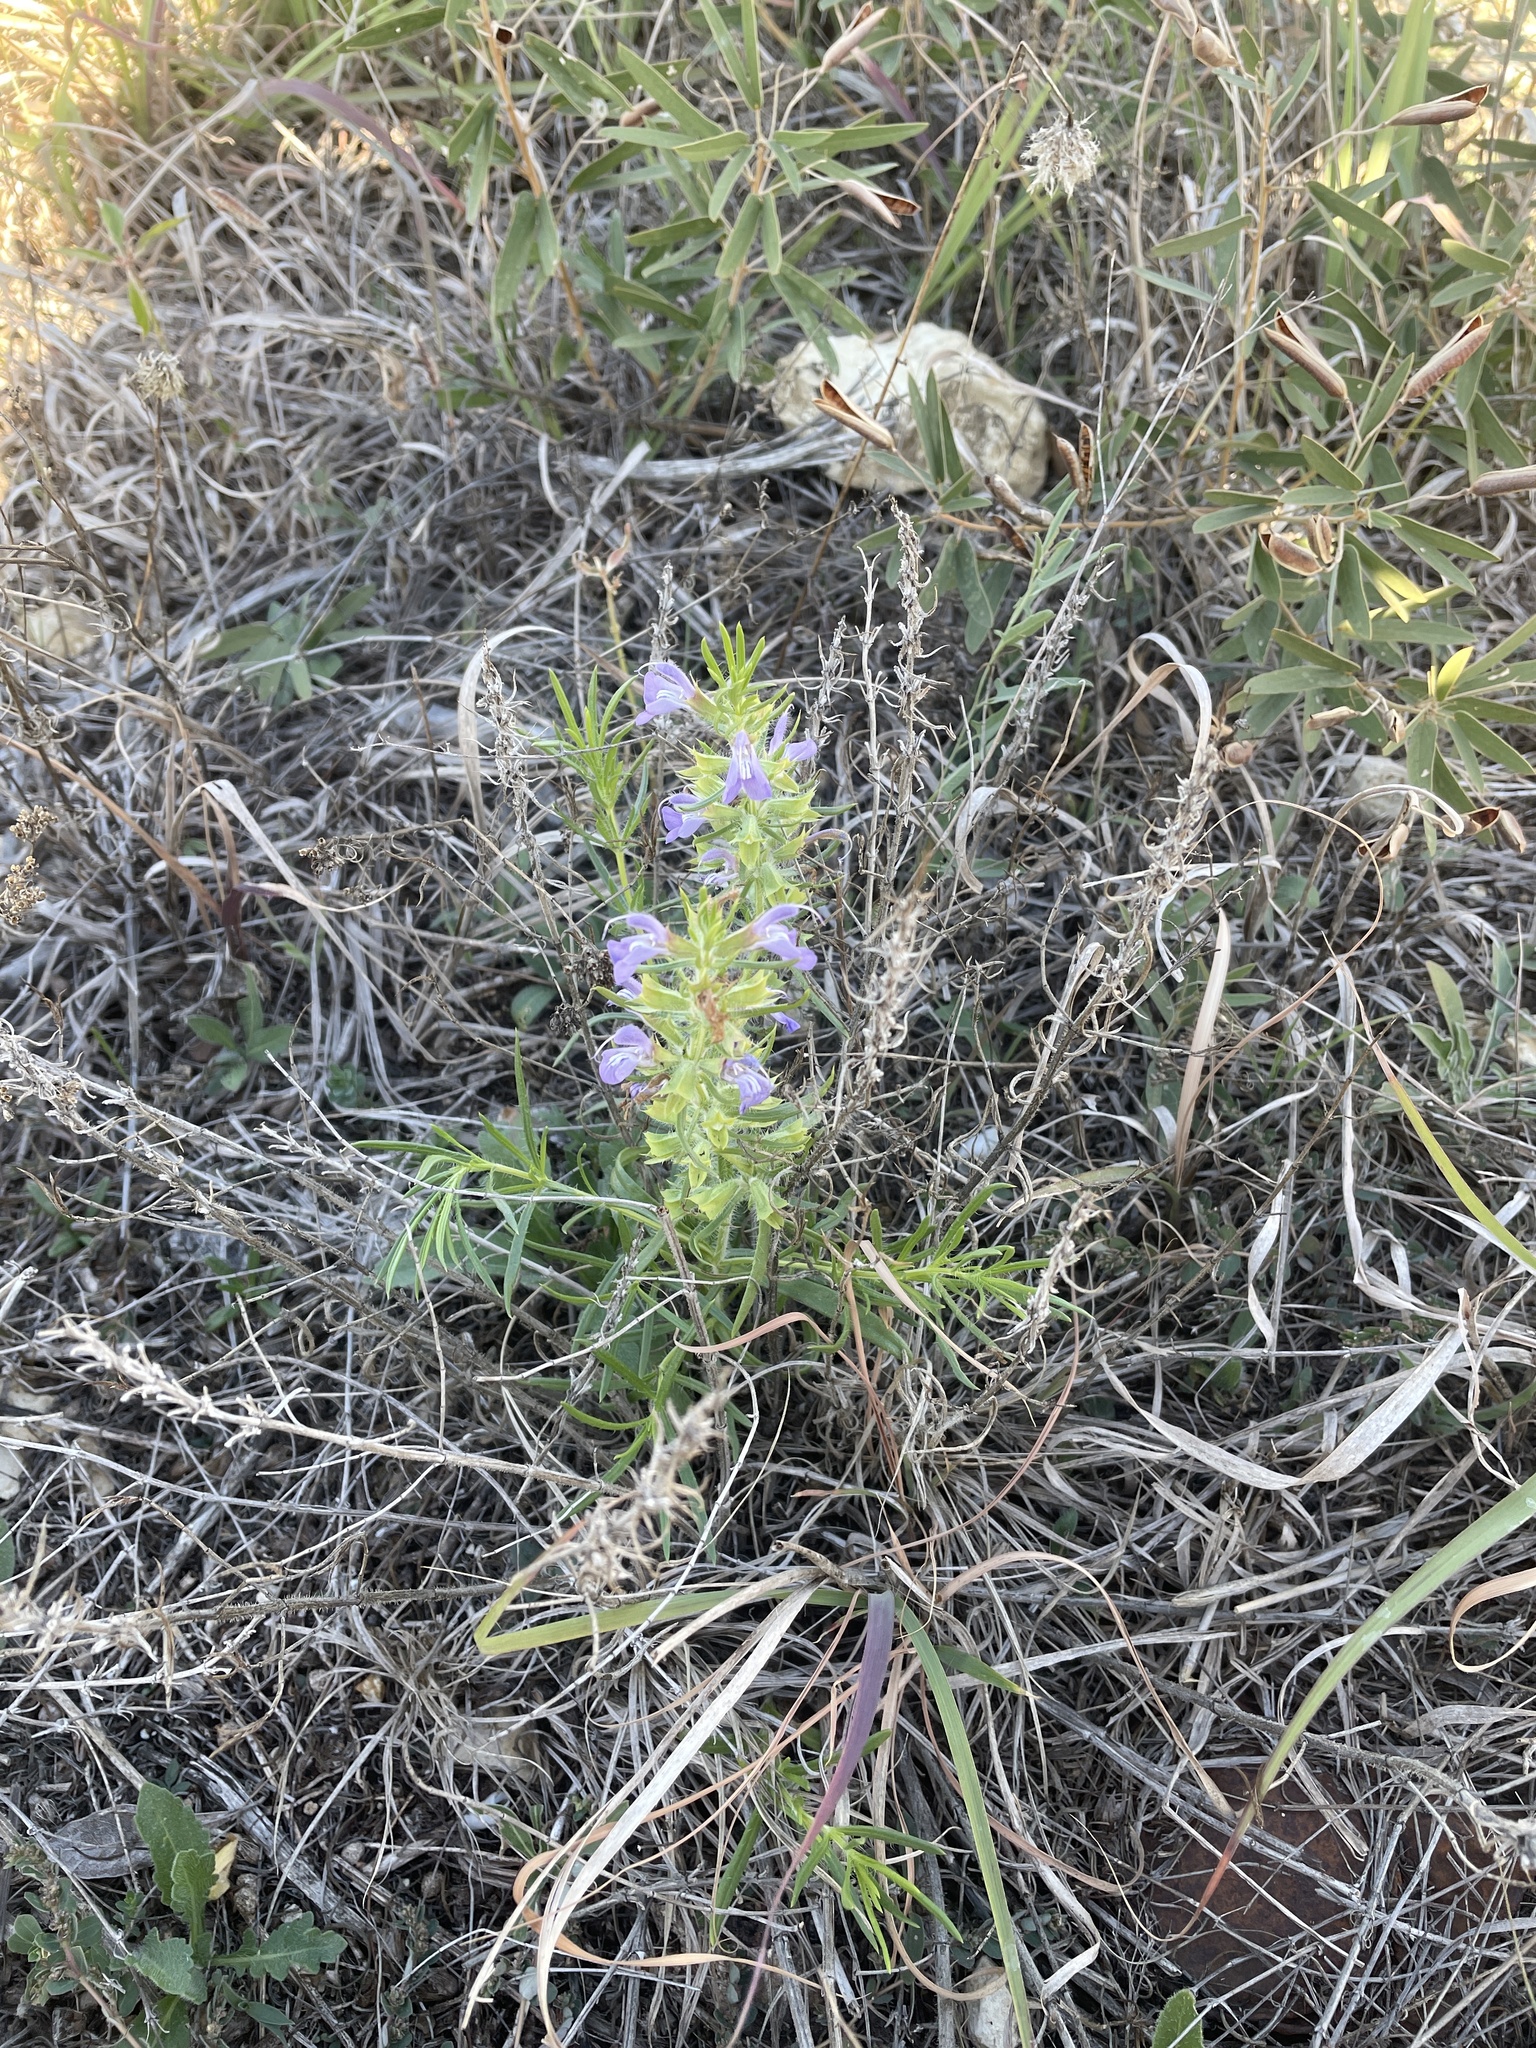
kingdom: Plantae
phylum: Tracheophyta
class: Magnoliopsida
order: Lamiales
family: Lamiaceae
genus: Salvia
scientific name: Salvia engelmannii
